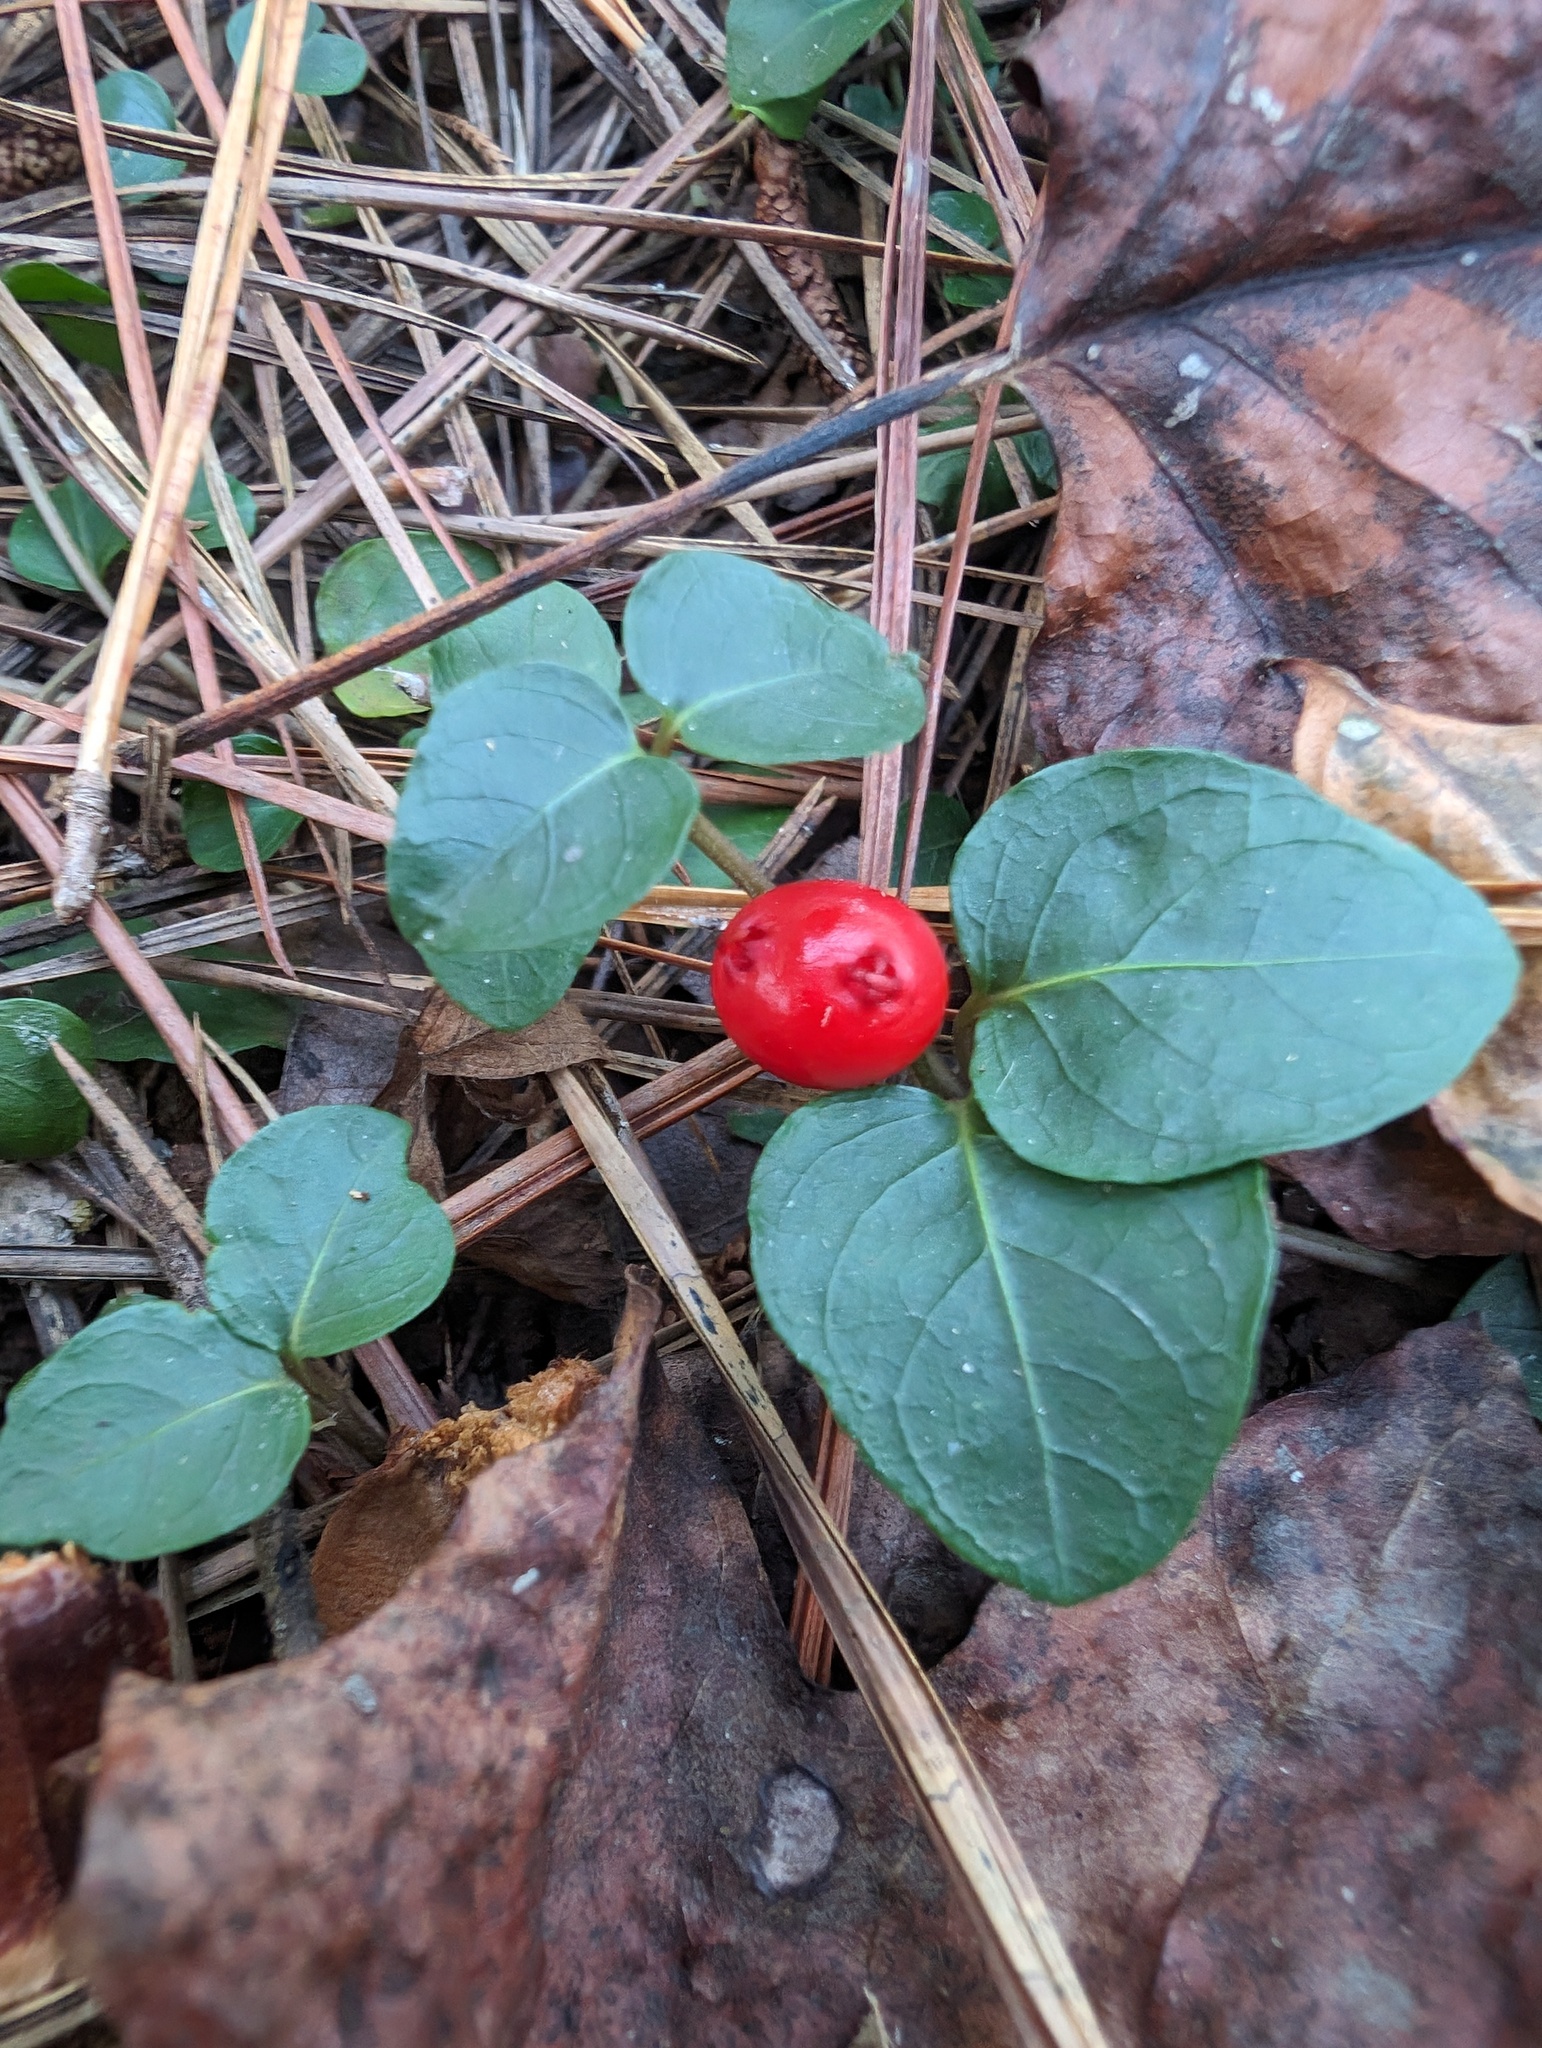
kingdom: Plantae
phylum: Tracheophyta
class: Magnoliopsida
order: Gentianales
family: Rubiaceae
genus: Mitchella
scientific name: Mitchella repens
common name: Partridge-berry
